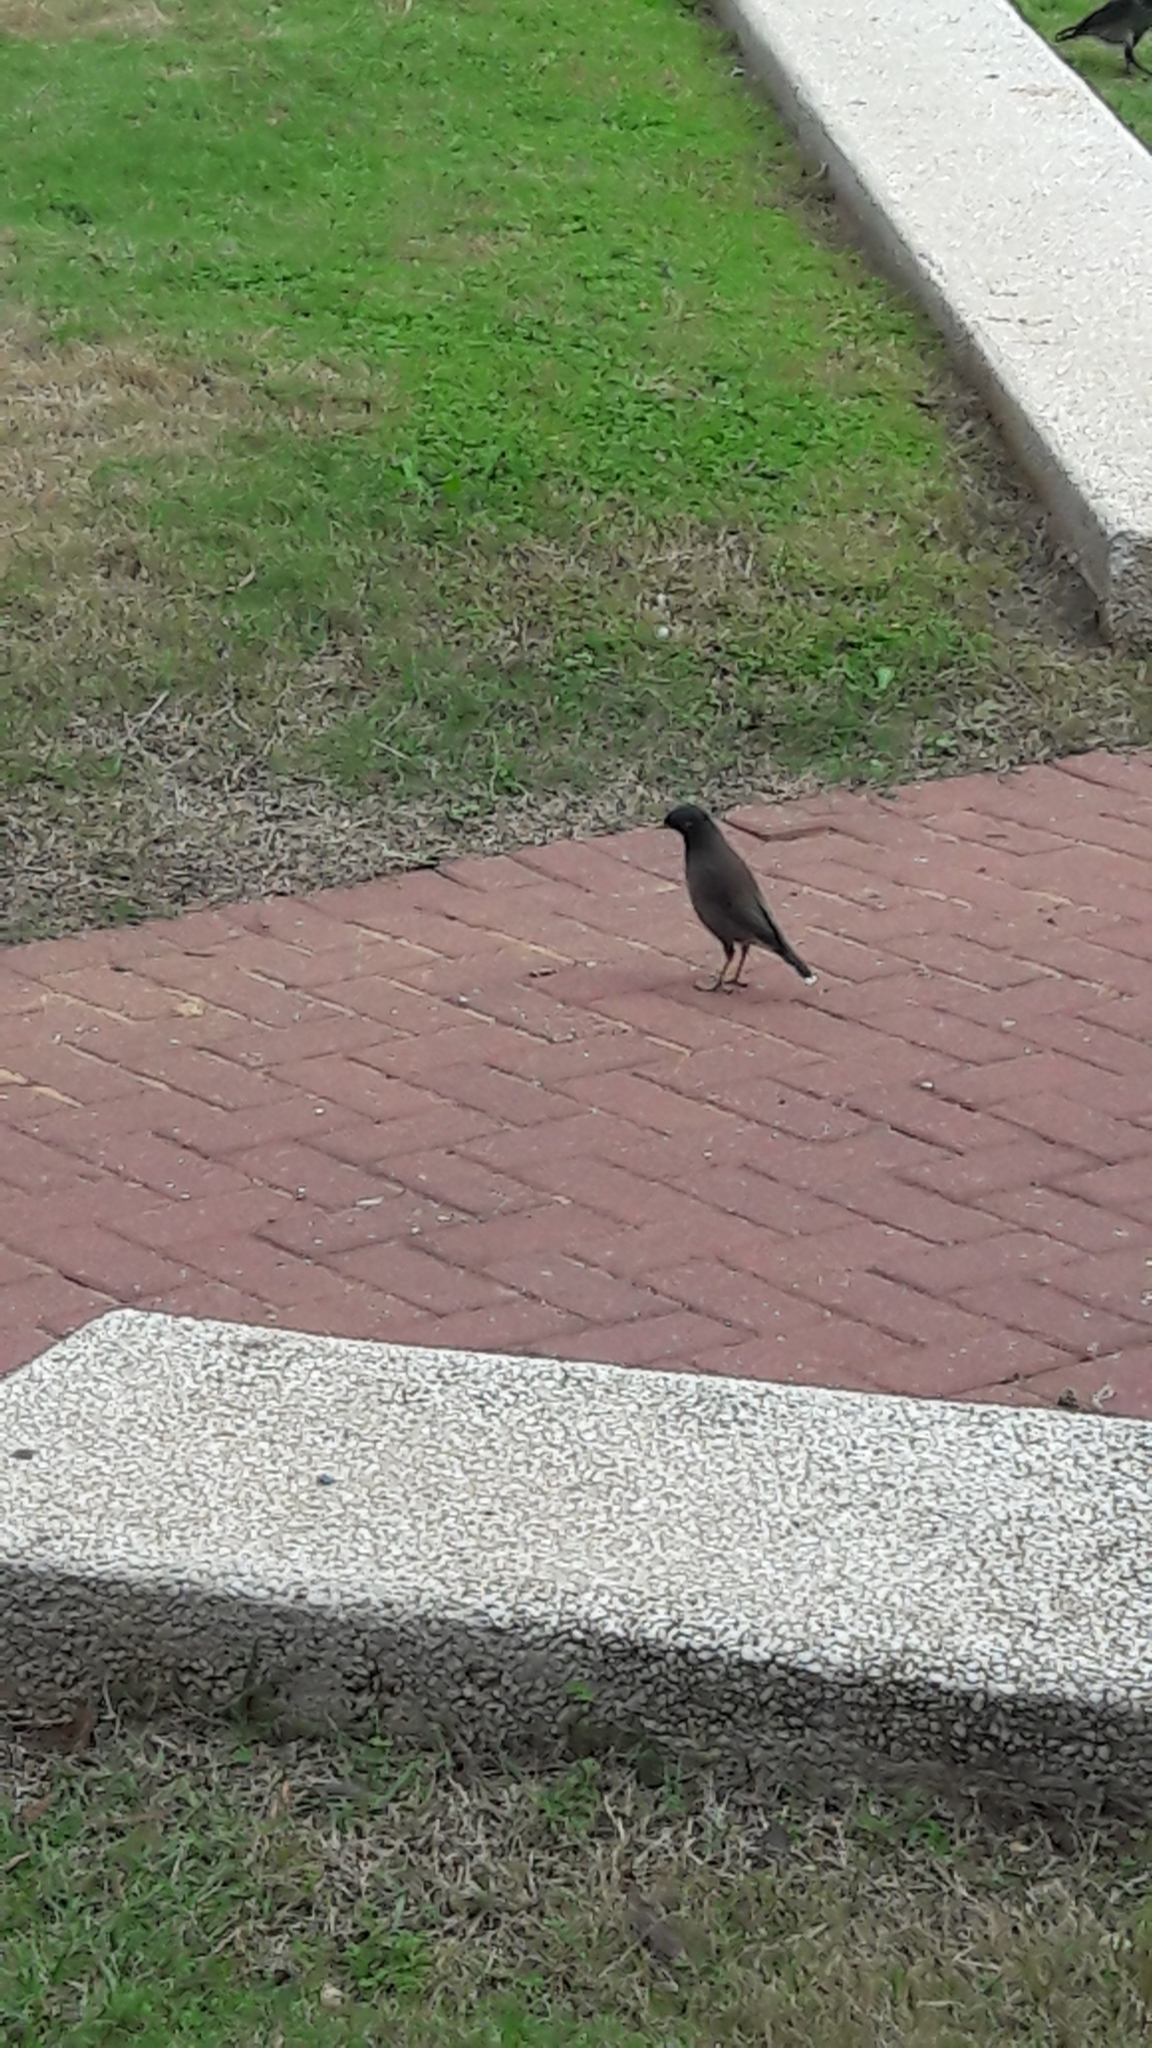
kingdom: Animalia
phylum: Chordata
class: Aves
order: Passeriformes
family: Sturnidae
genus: Acridotheres
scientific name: Acridotheres tristis
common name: Common myna
